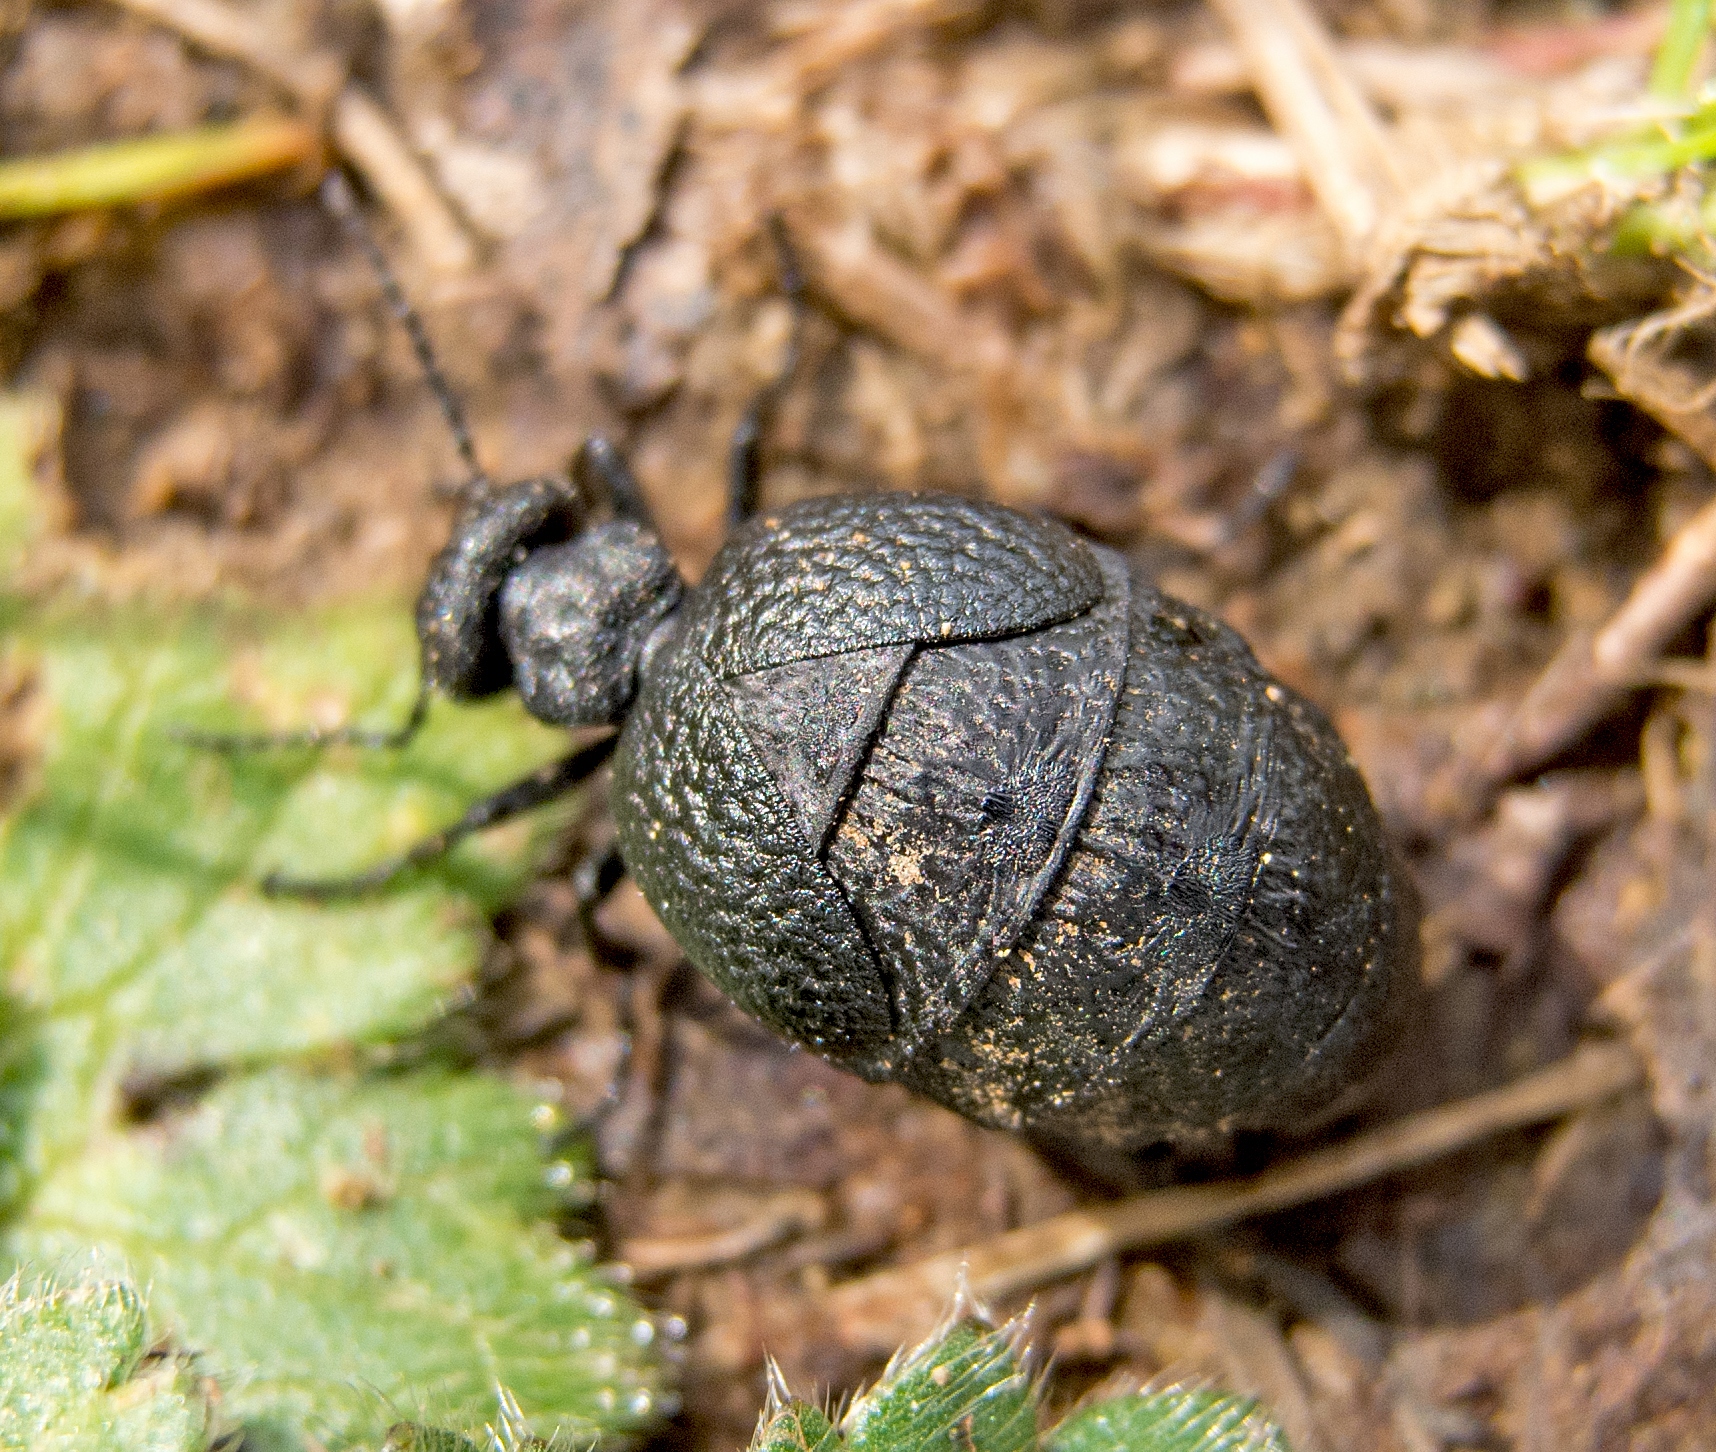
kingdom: Animalia
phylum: Arthropoda
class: Insecta
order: Coleoptera
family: Meloidae
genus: Meloe
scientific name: Meloe rugosus
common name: Rugged oil-beetle
